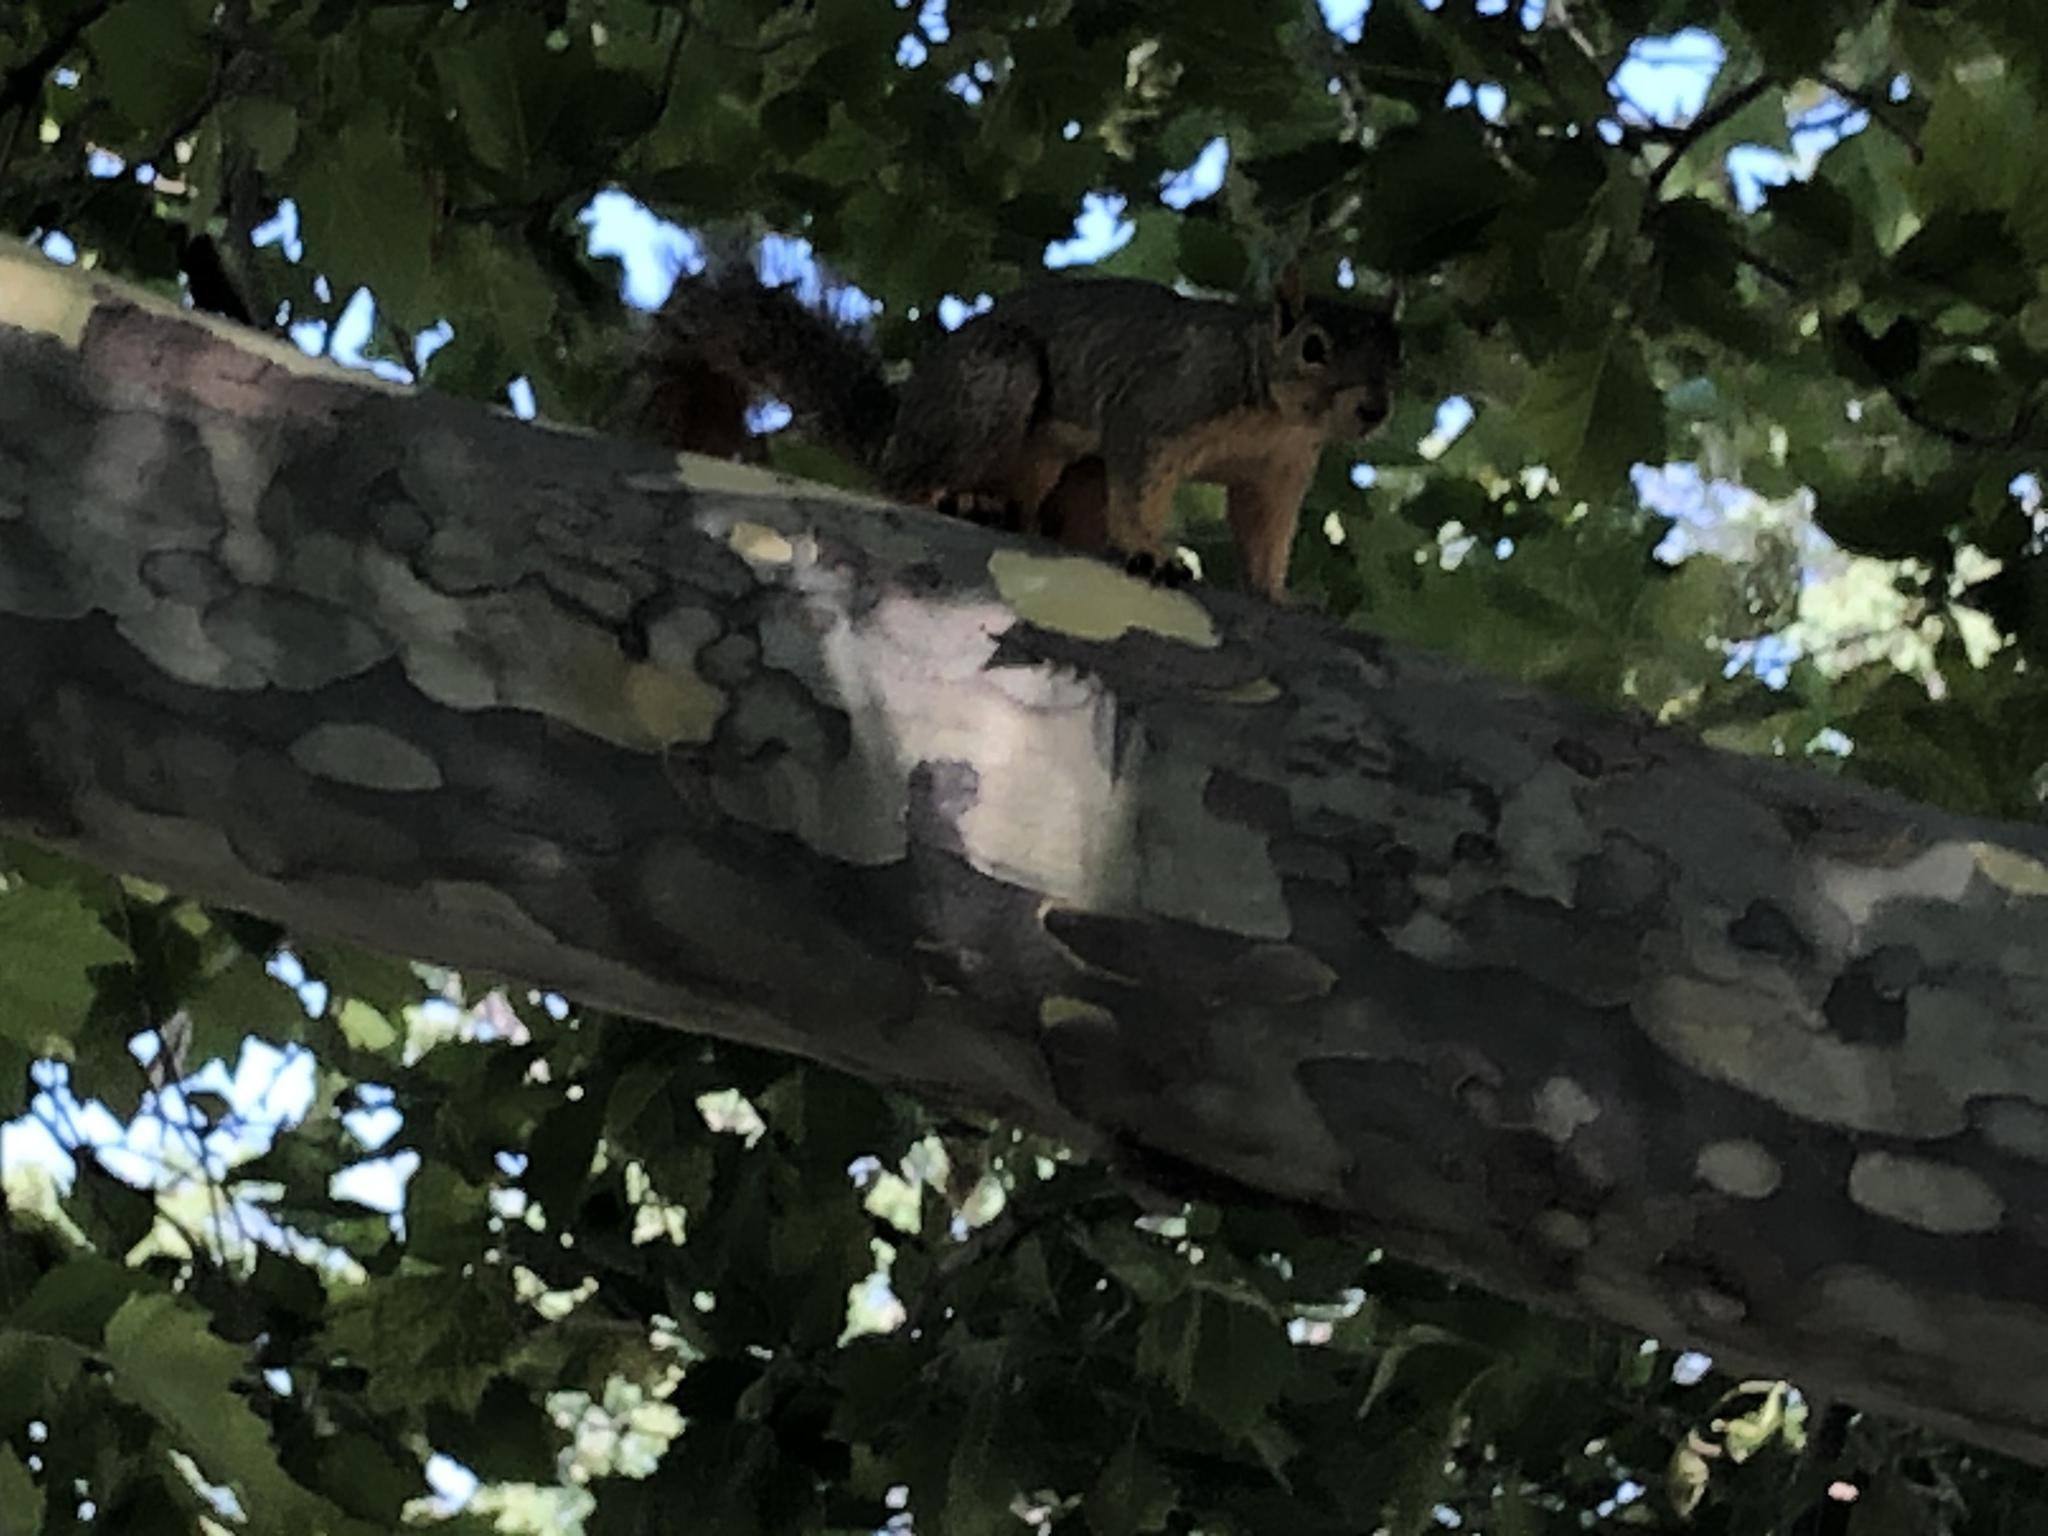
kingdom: Animalia
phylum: Chordata
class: Mammalia
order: Rodentia
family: Sciuridae
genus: Sciurus
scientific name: Sciurus niger
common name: Fox squirrel
